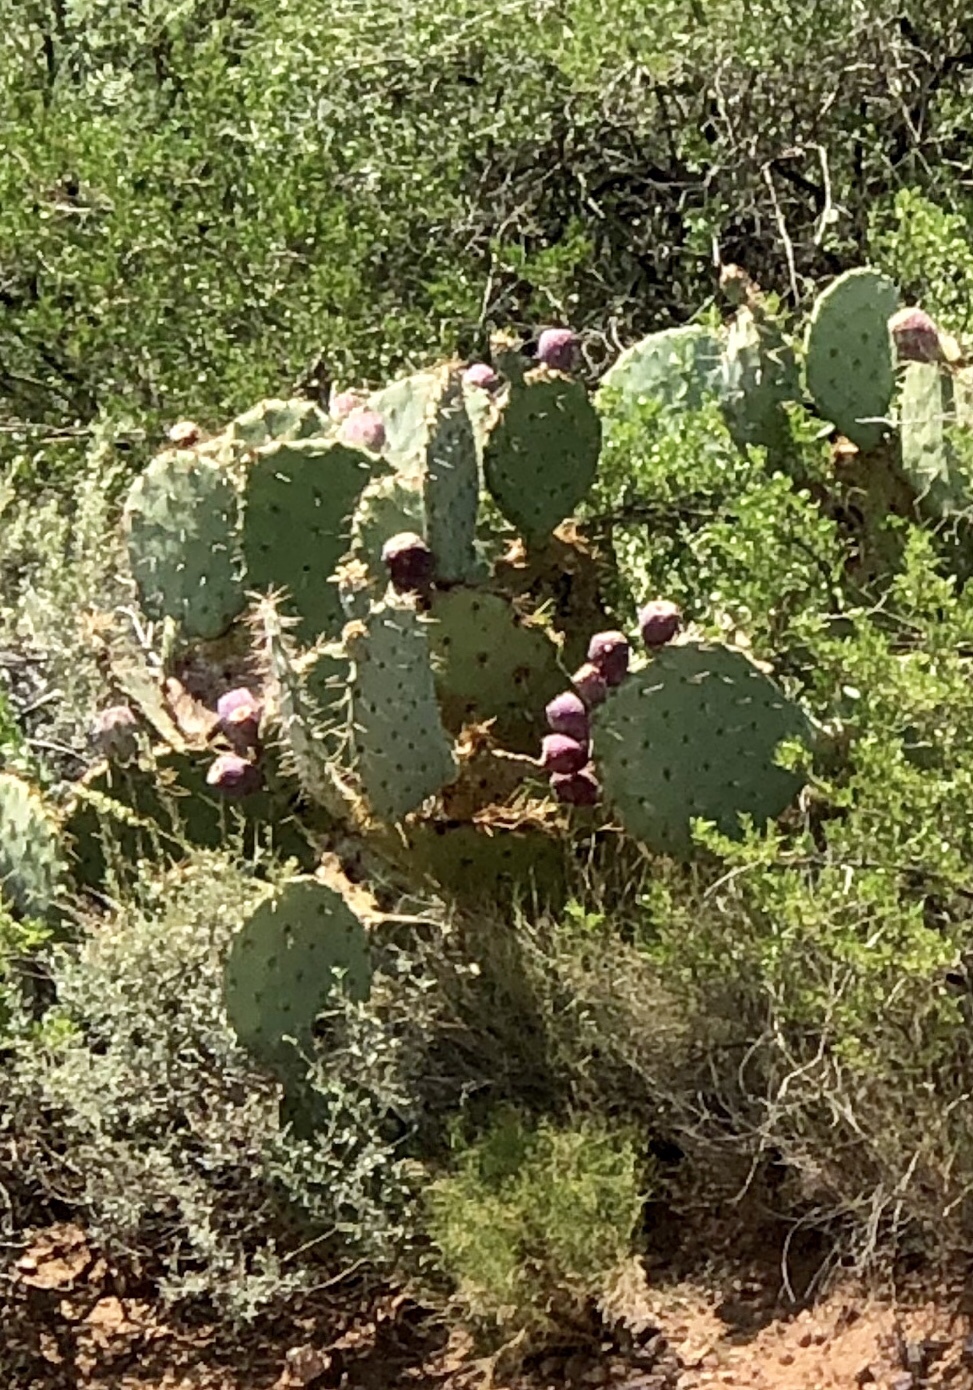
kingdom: Plantae
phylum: Tracheophyta
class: Magnoliopsida
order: Caryophyllales
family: Cactaceae
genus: Opuntia
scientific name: Opuntia orbiculata
